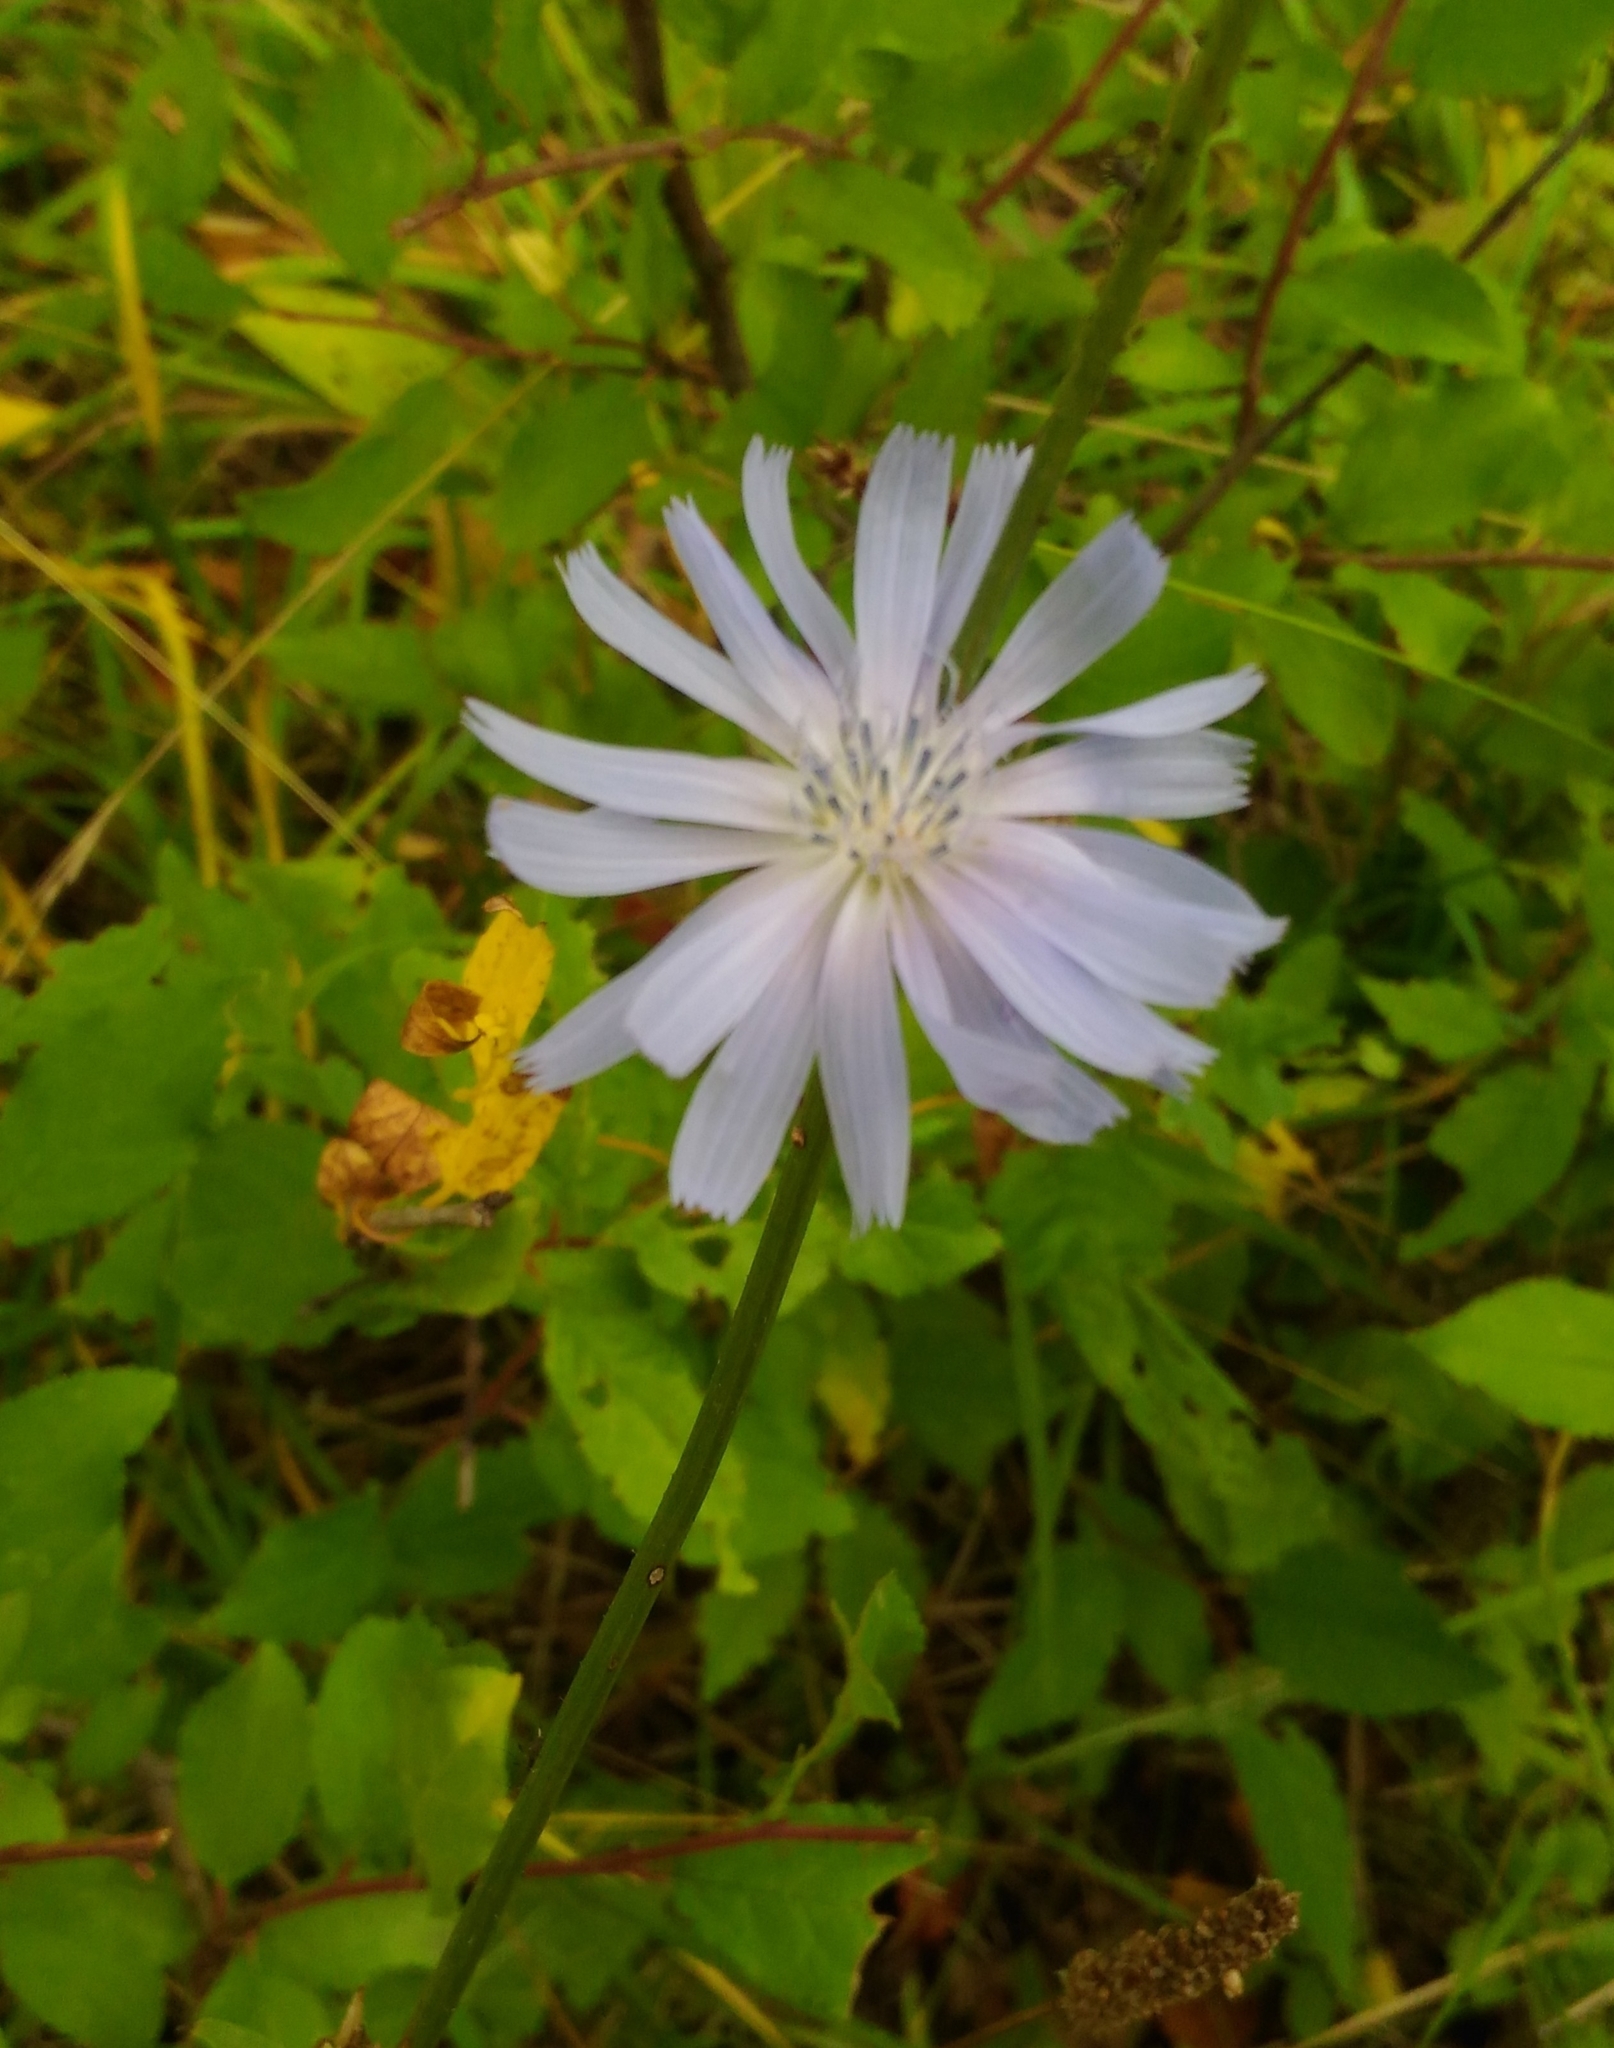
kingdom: Plantae
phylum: Tracheophyta
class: Magnoliopsida
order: Asterales
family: Asteraceae
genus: Cichorium
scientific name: Cichorium intybus
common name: Chicory
